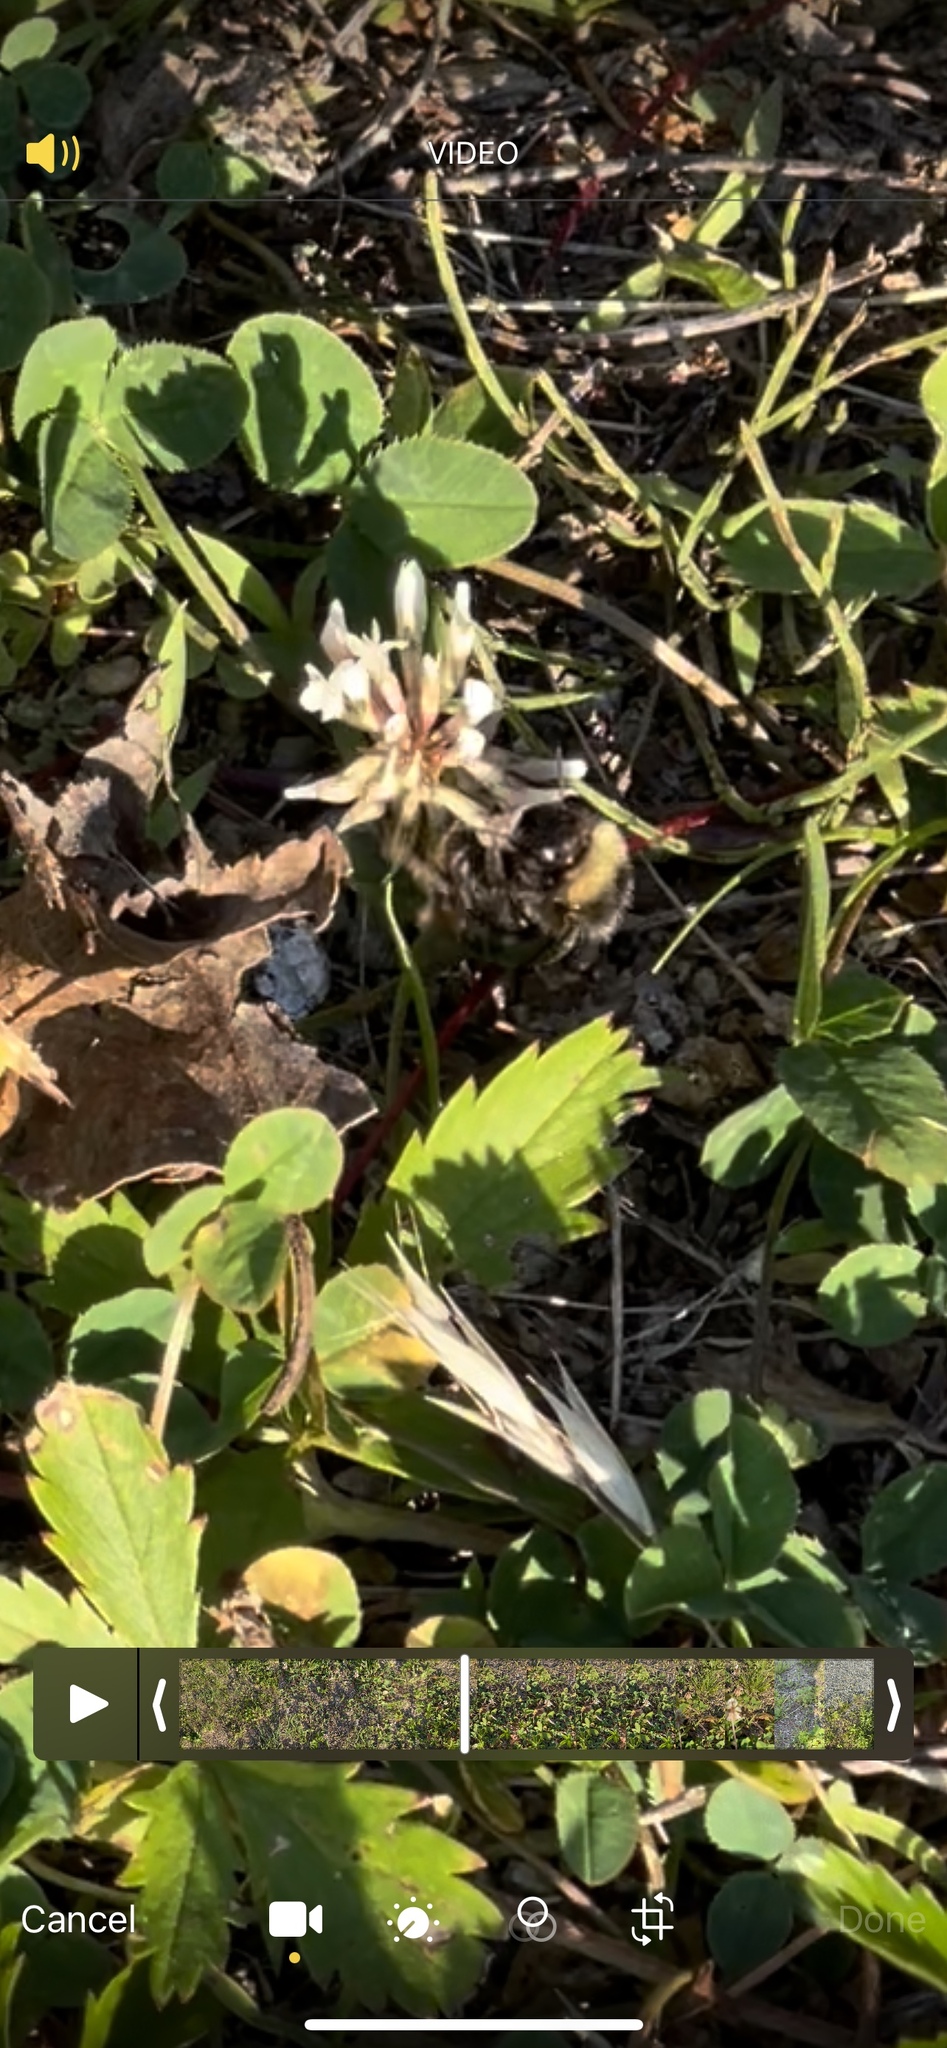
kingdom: Animalia
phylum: Arthropoda
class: Insecta
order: Hymenoptera
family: Apidae
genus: Bombus
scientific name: Bombus terricola
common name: Yellow-banded bumble bee
